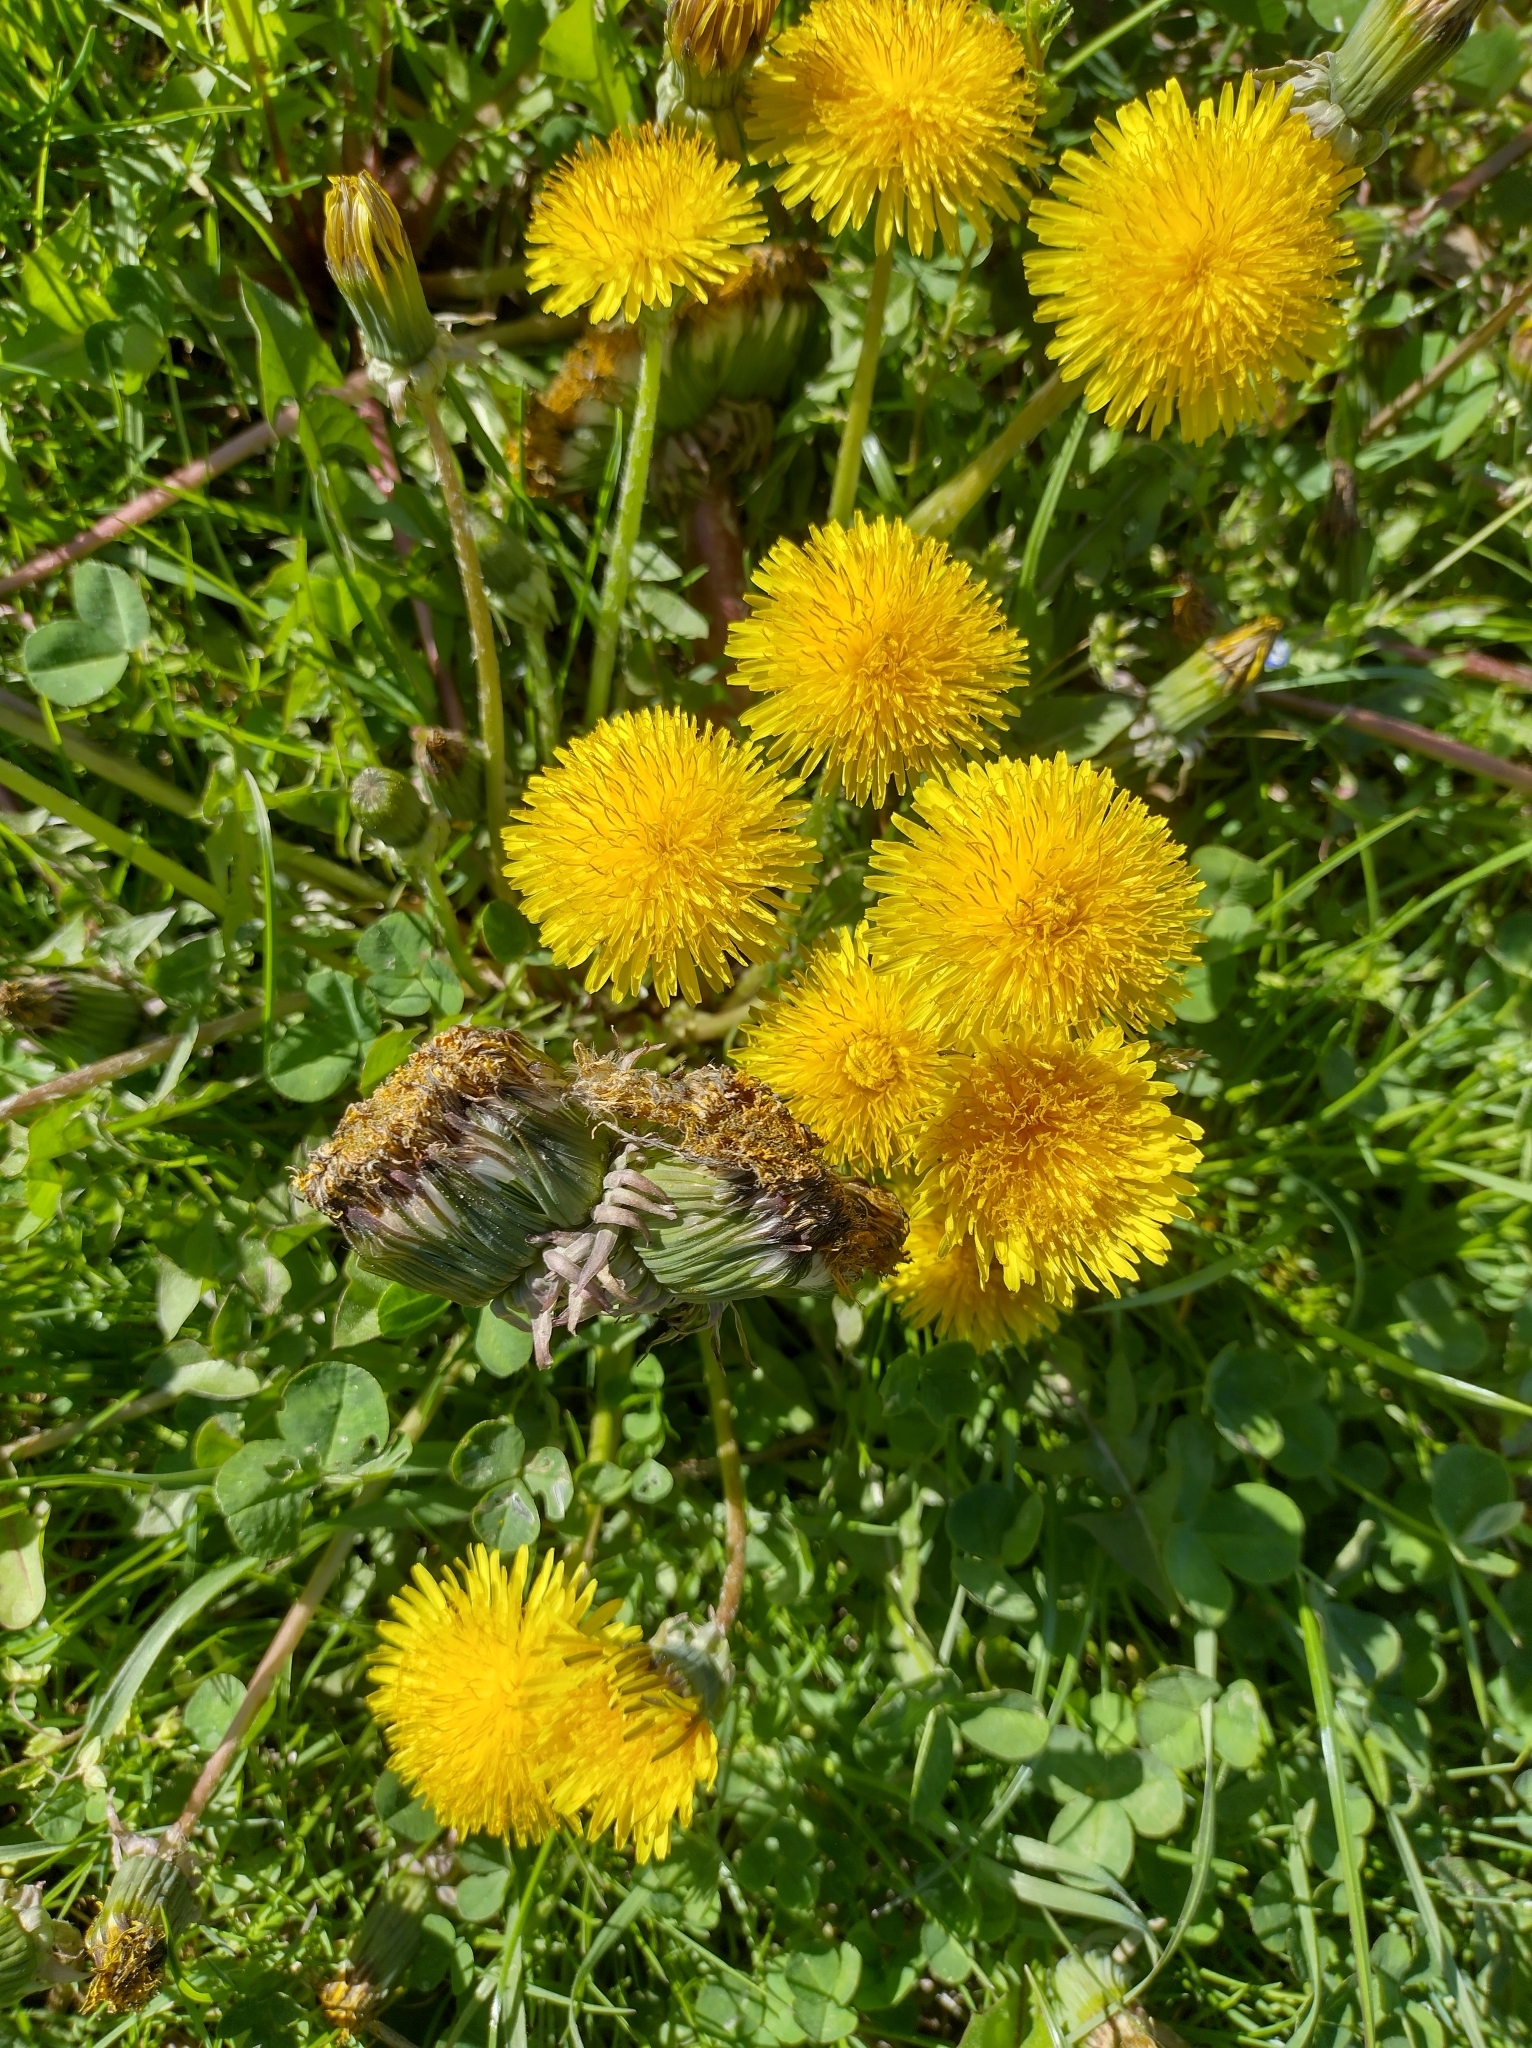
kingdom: Plantae
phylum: Tracheophyta
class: Magnoliopsida
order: Asterales
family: Asteraceae
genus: Taraxacum
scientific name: Taraxacum
